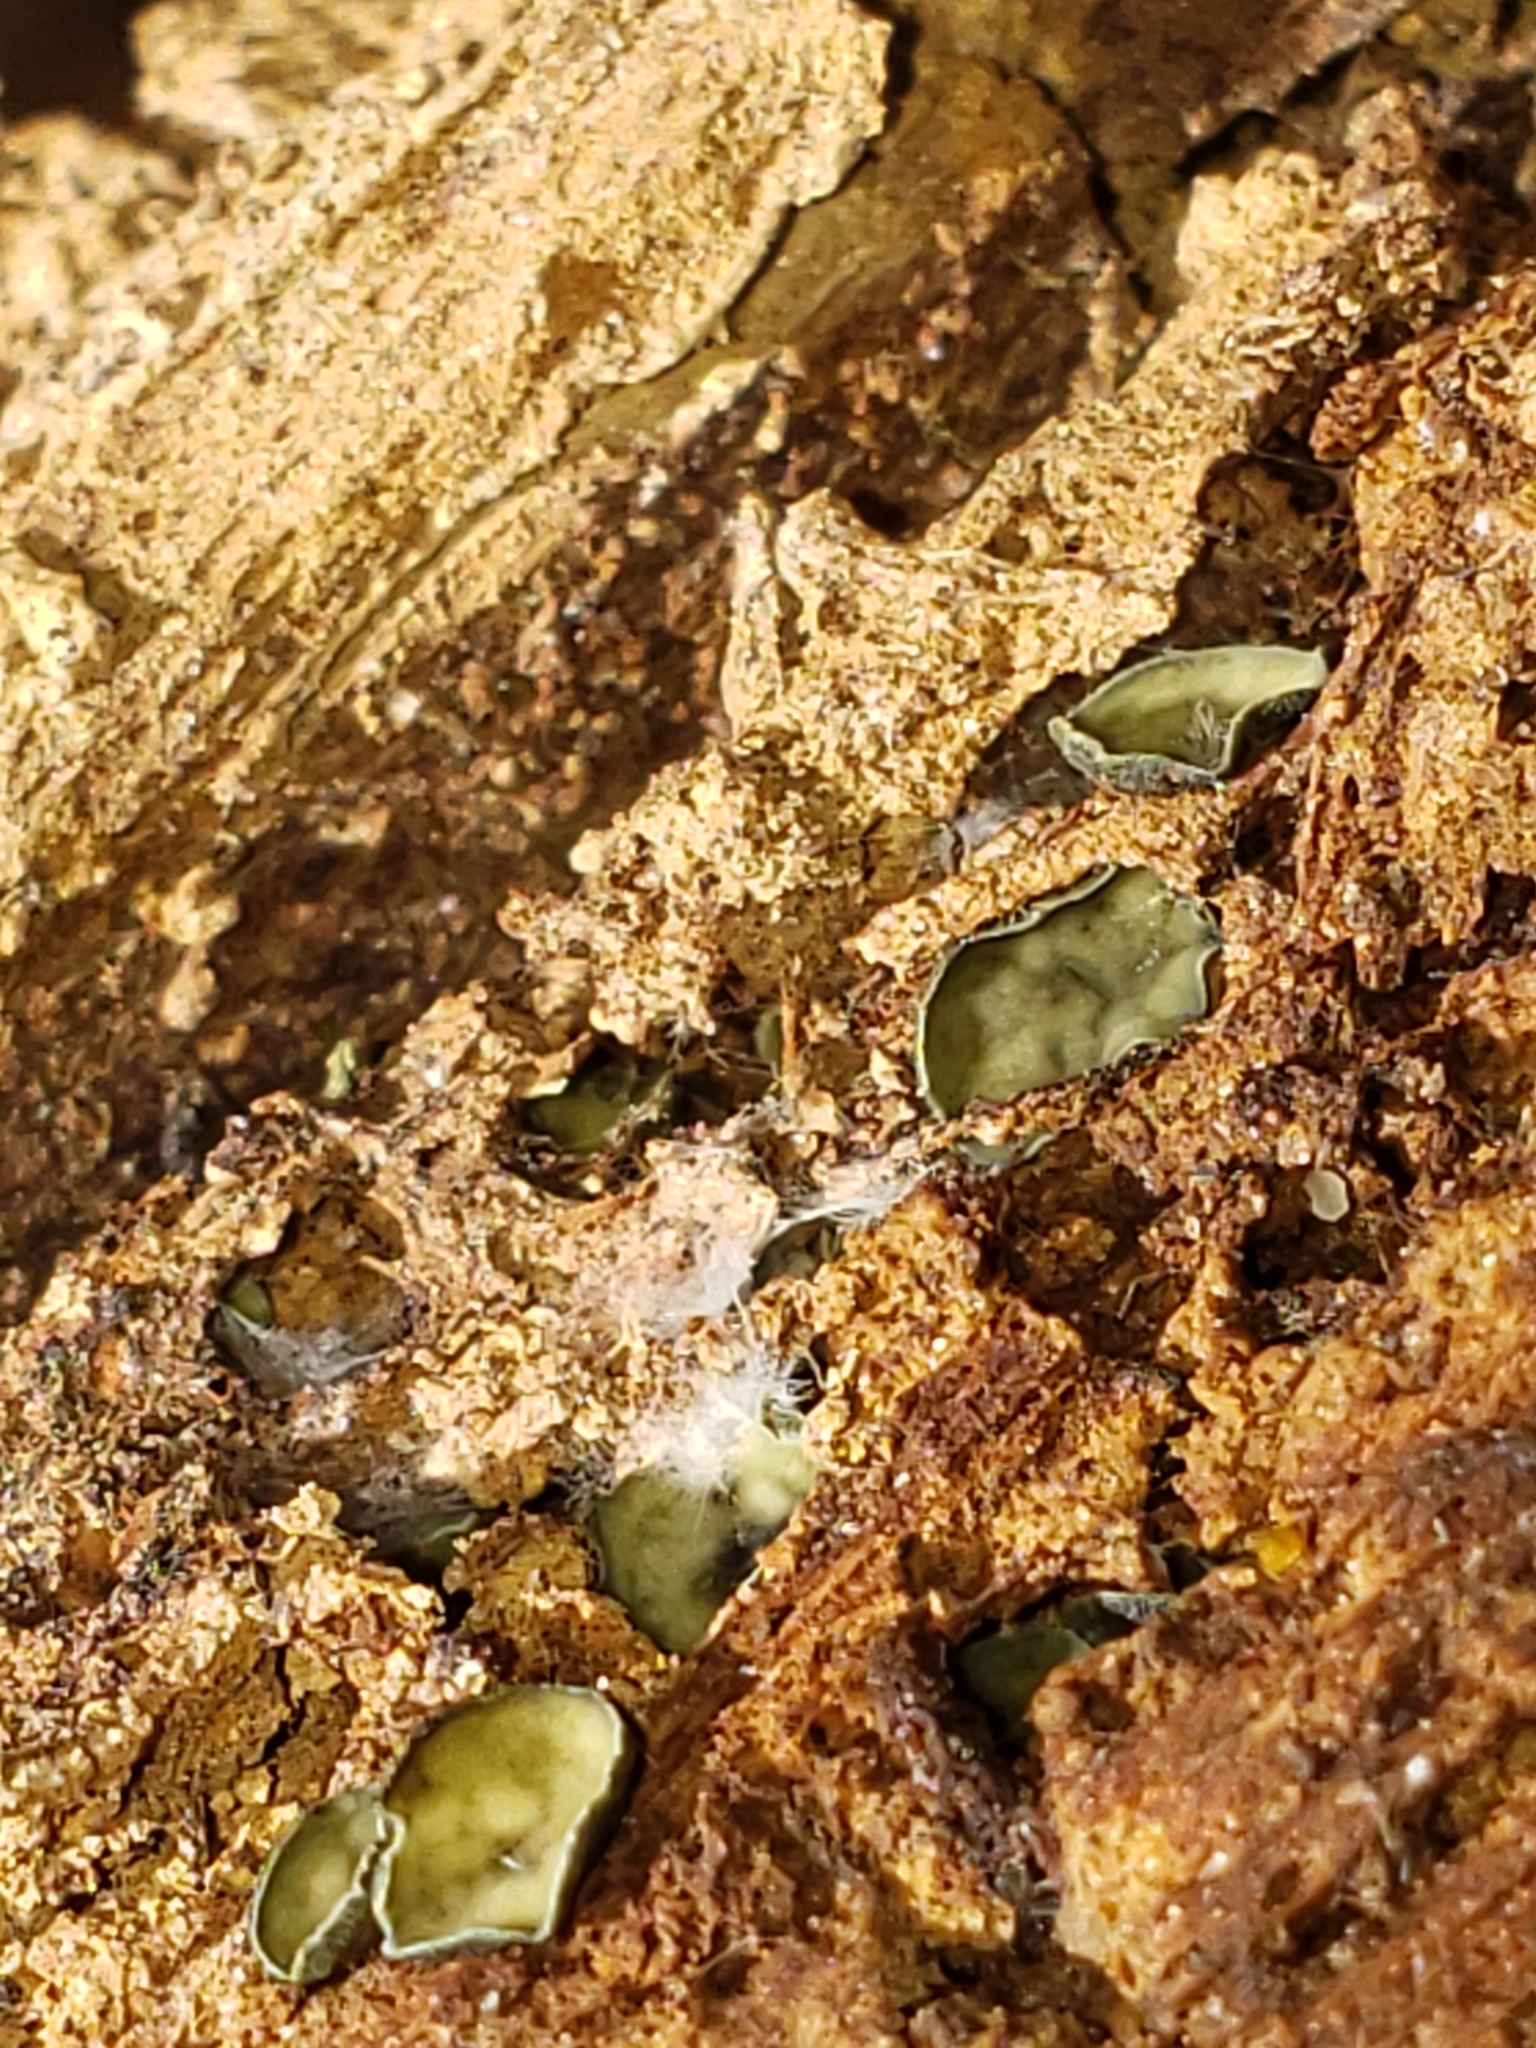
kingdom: Fungi
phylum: Ascomycota
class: Leotiomycetes
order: Helotiales
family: Chlorospleniaceae
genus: Chlorosplenium
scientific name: Chlorosplenium chlora
